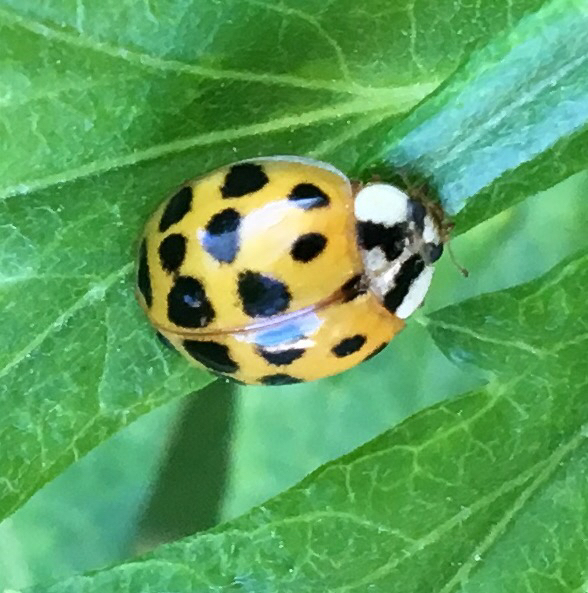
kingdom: Animalia
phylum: Arthropoda
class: Insecta
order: Coleoptera
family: Coccinellidae
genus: Harmonia
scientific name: Harmonia axyridis
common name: Harlequin ladybird
